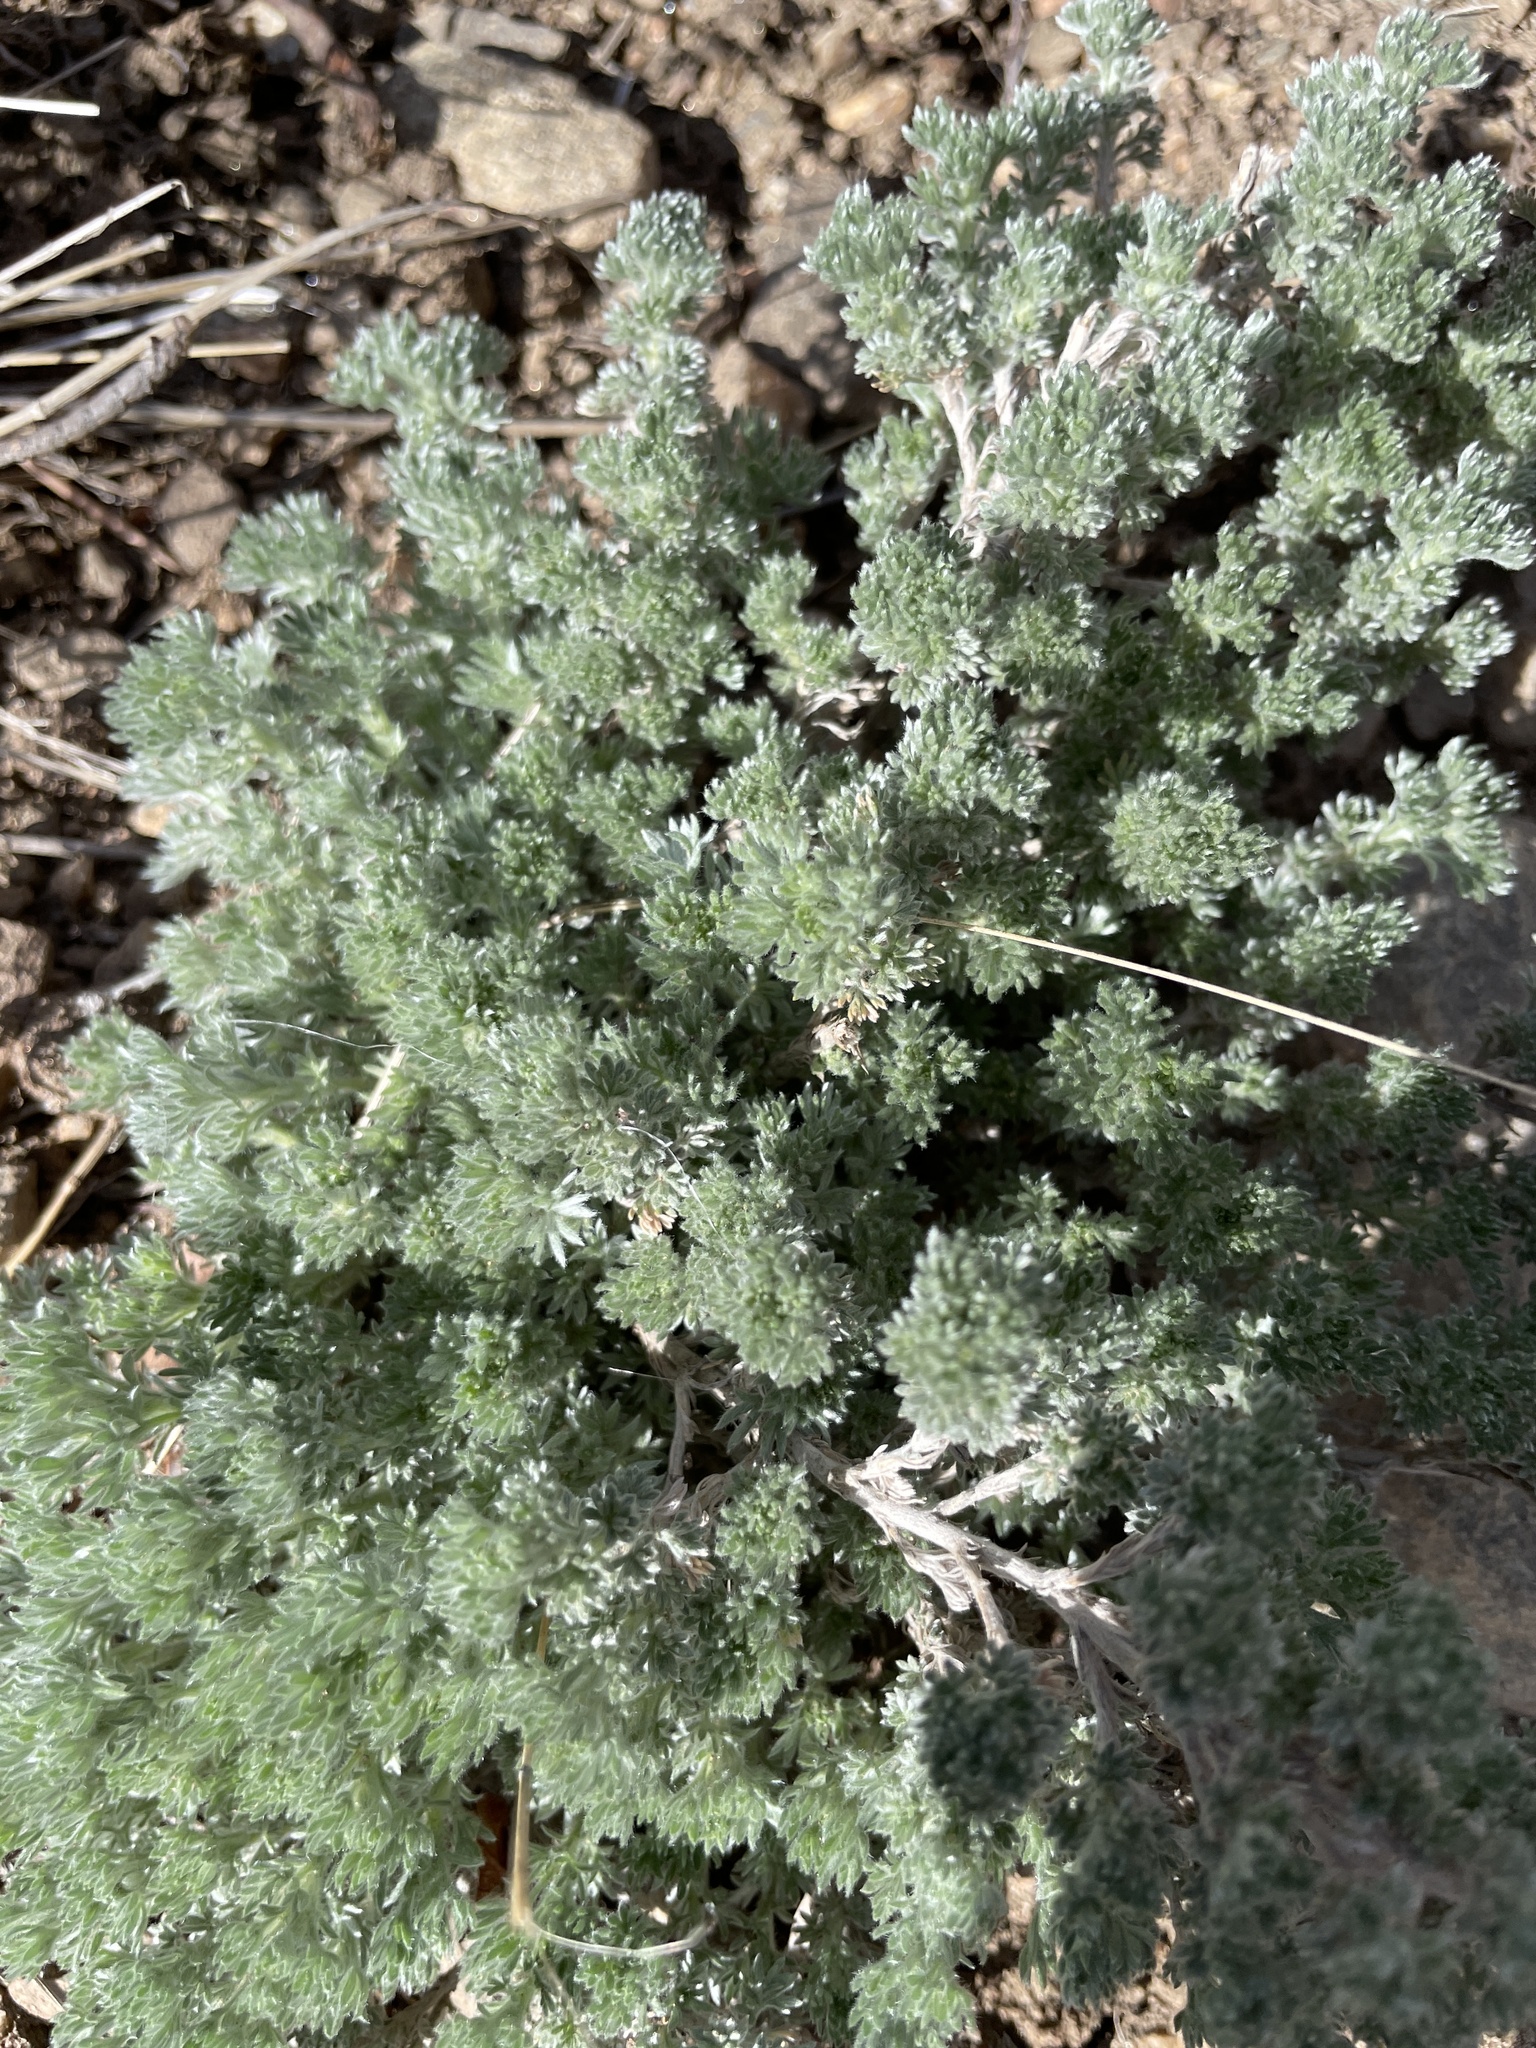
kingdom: Plantae
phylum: Tracheophyta
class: Magnoliopsida
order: Asterales
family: Asteraceae
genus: Artemisia
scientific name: Artemisia frigida
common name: Prairie sagewort
